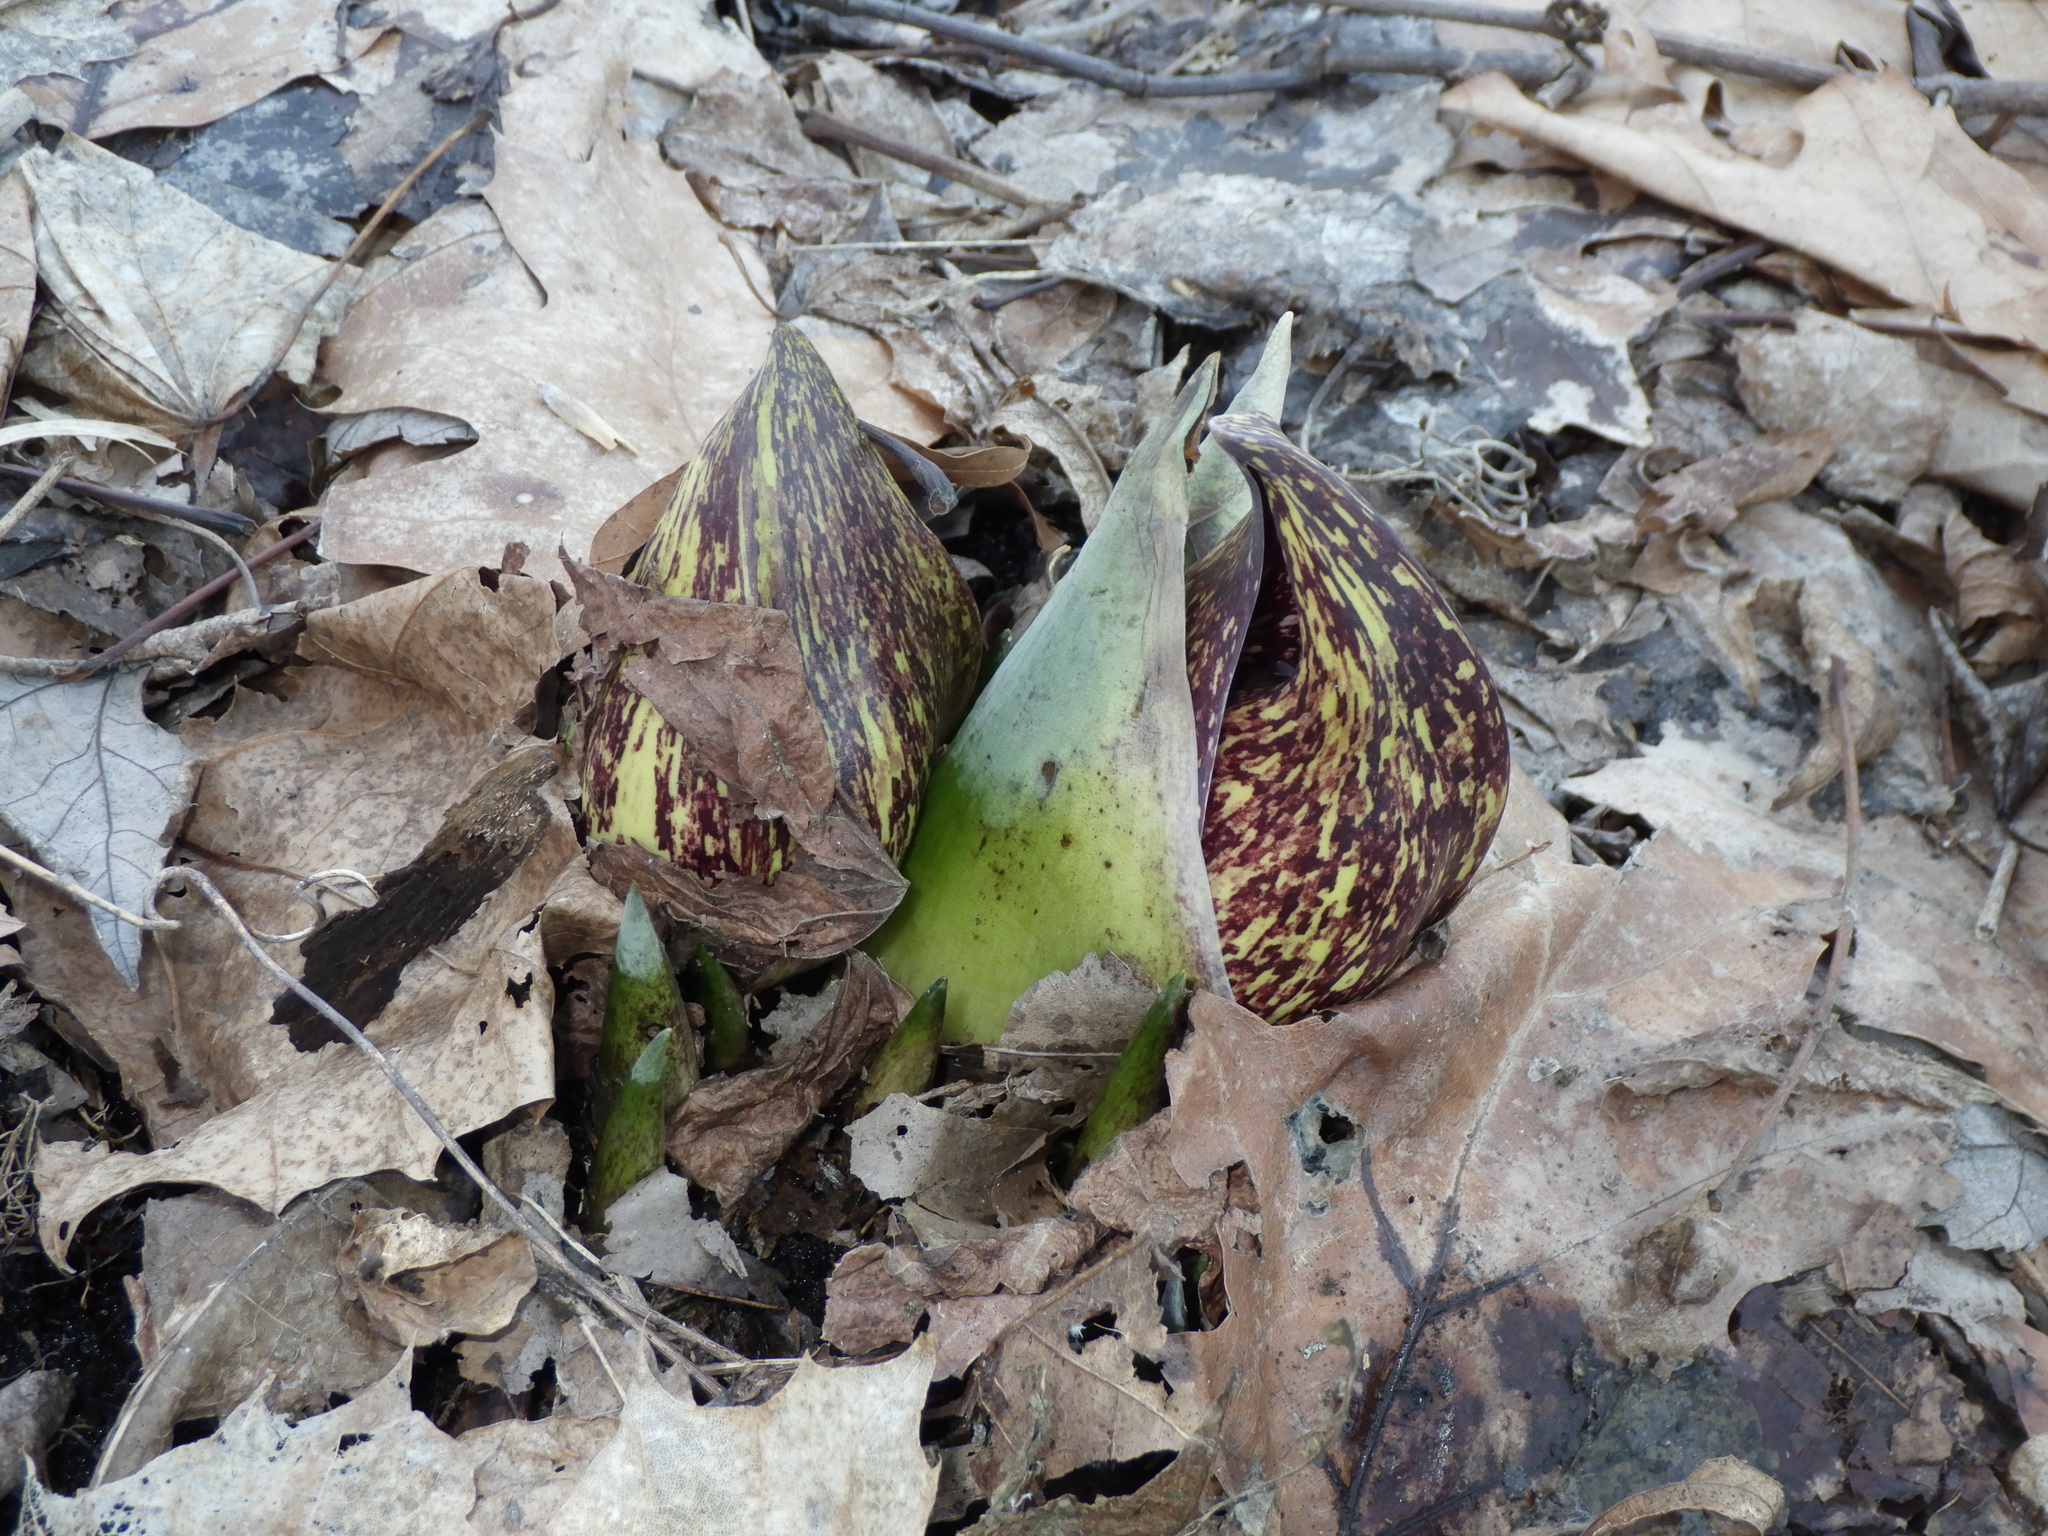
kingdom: Plantae
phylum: Tracheophyta
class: Liliopsida
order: Alismatales
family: Araceae
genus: Symplocarpus
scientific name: Symplocarpus foetidus
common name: Eastern skunk cabbage
